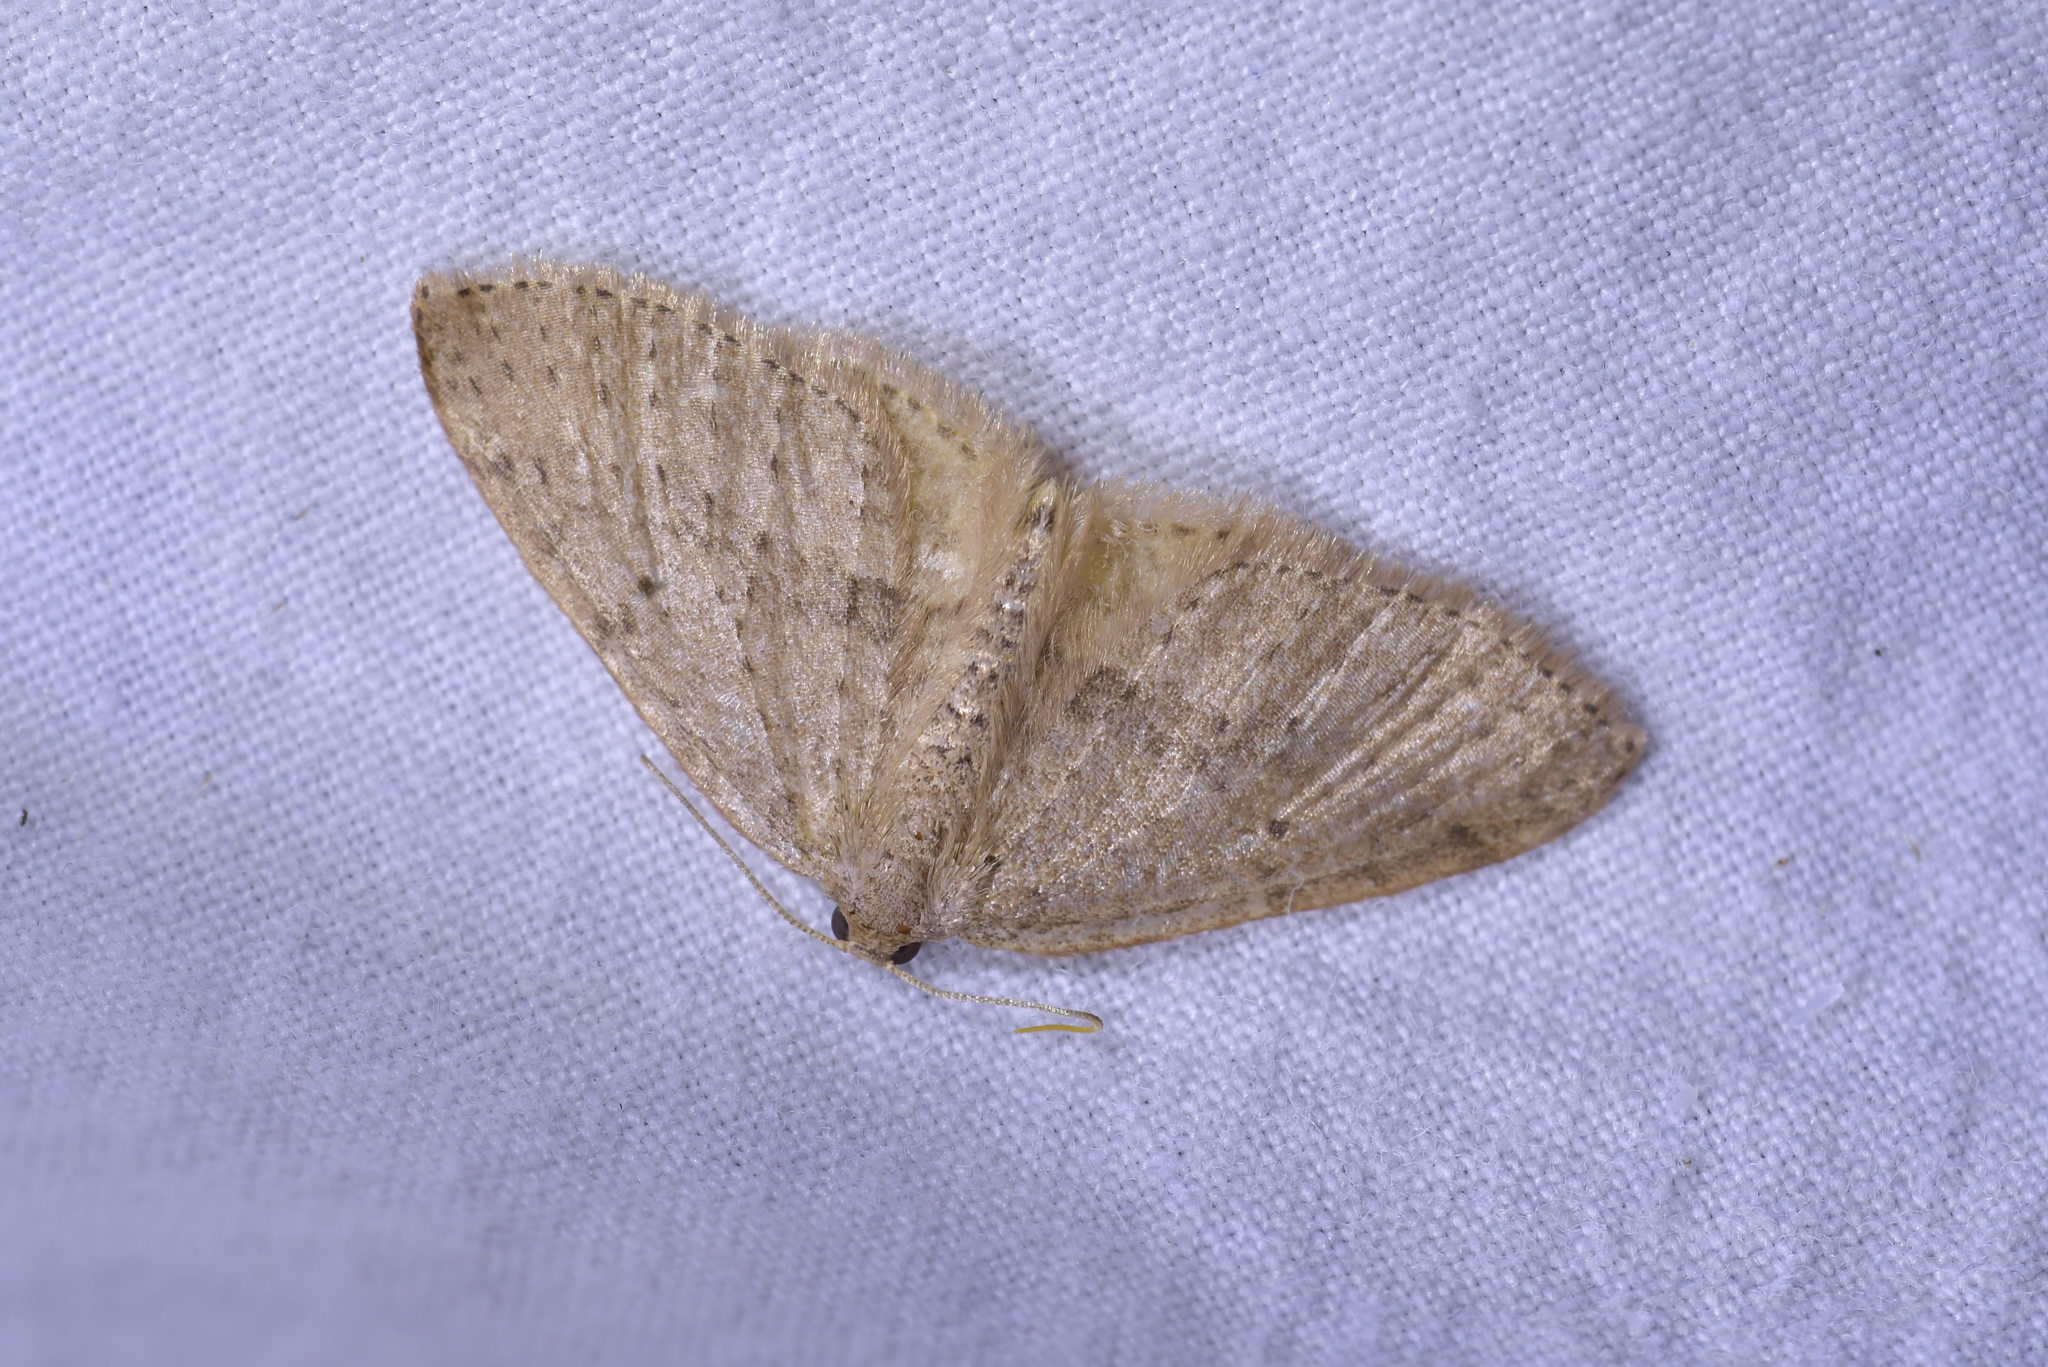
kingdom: Animalia
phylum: Arthropoda
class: Insecta
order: Lepidoptera
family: Geometridae
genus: Poecilasthena
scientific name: Poecilasthena schistaria
